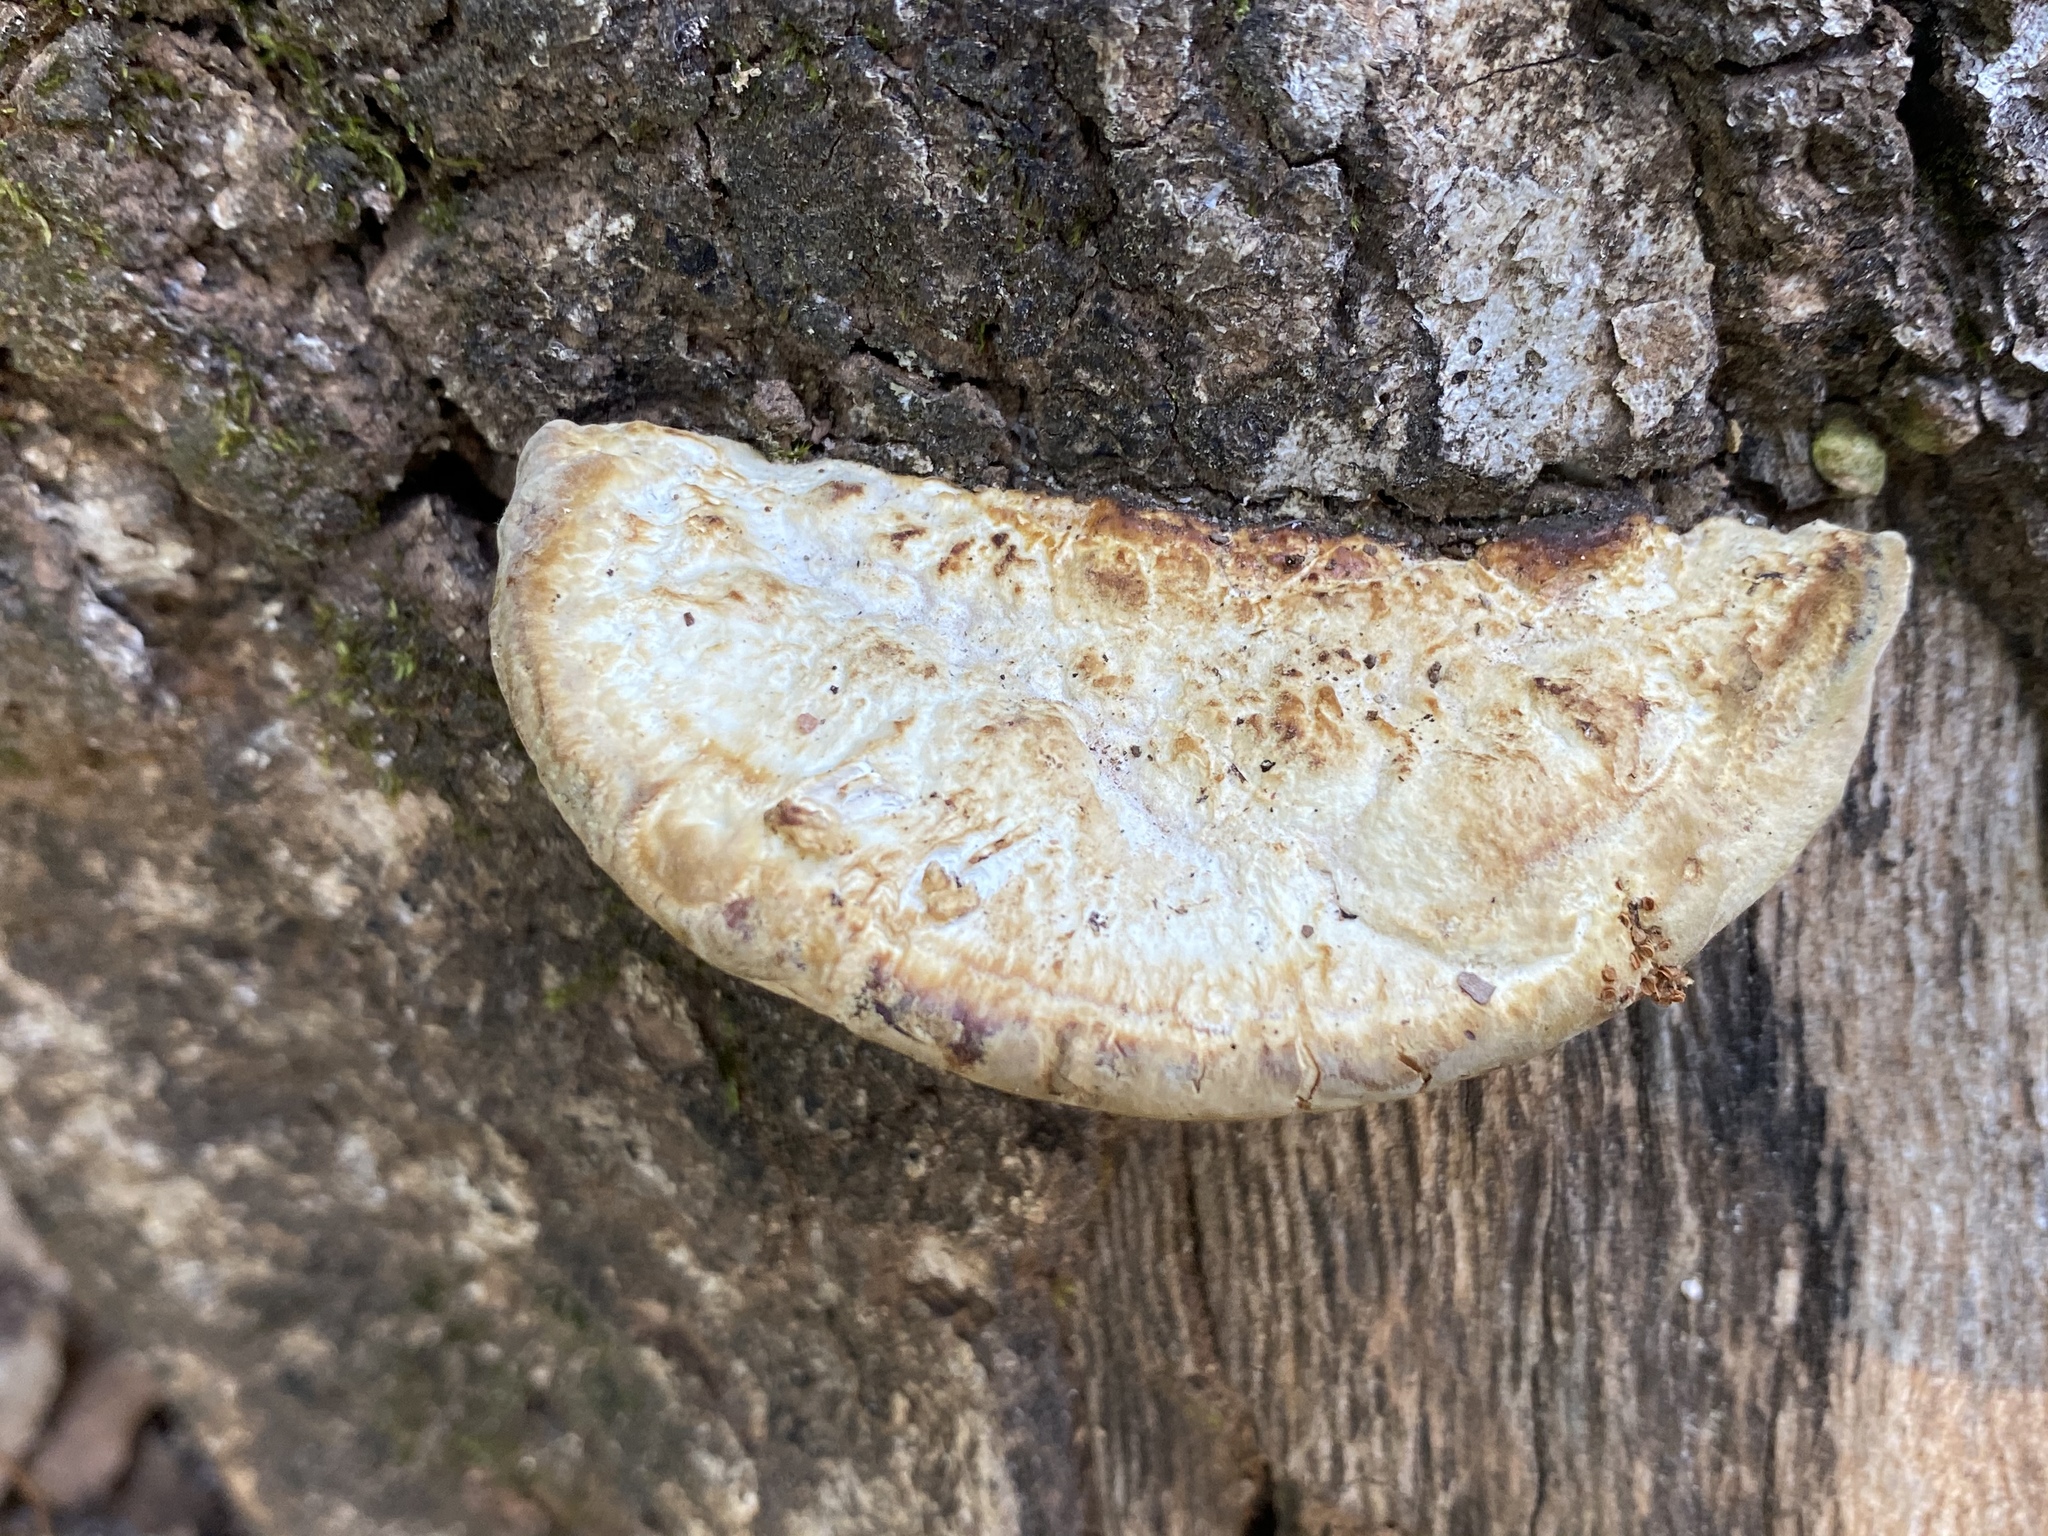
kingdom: Fungi
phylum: Basidiomycota
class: Agaricomycetes
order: Polyporales
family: Polyporaceae
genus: Trametes
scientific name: Trametes lactinea
